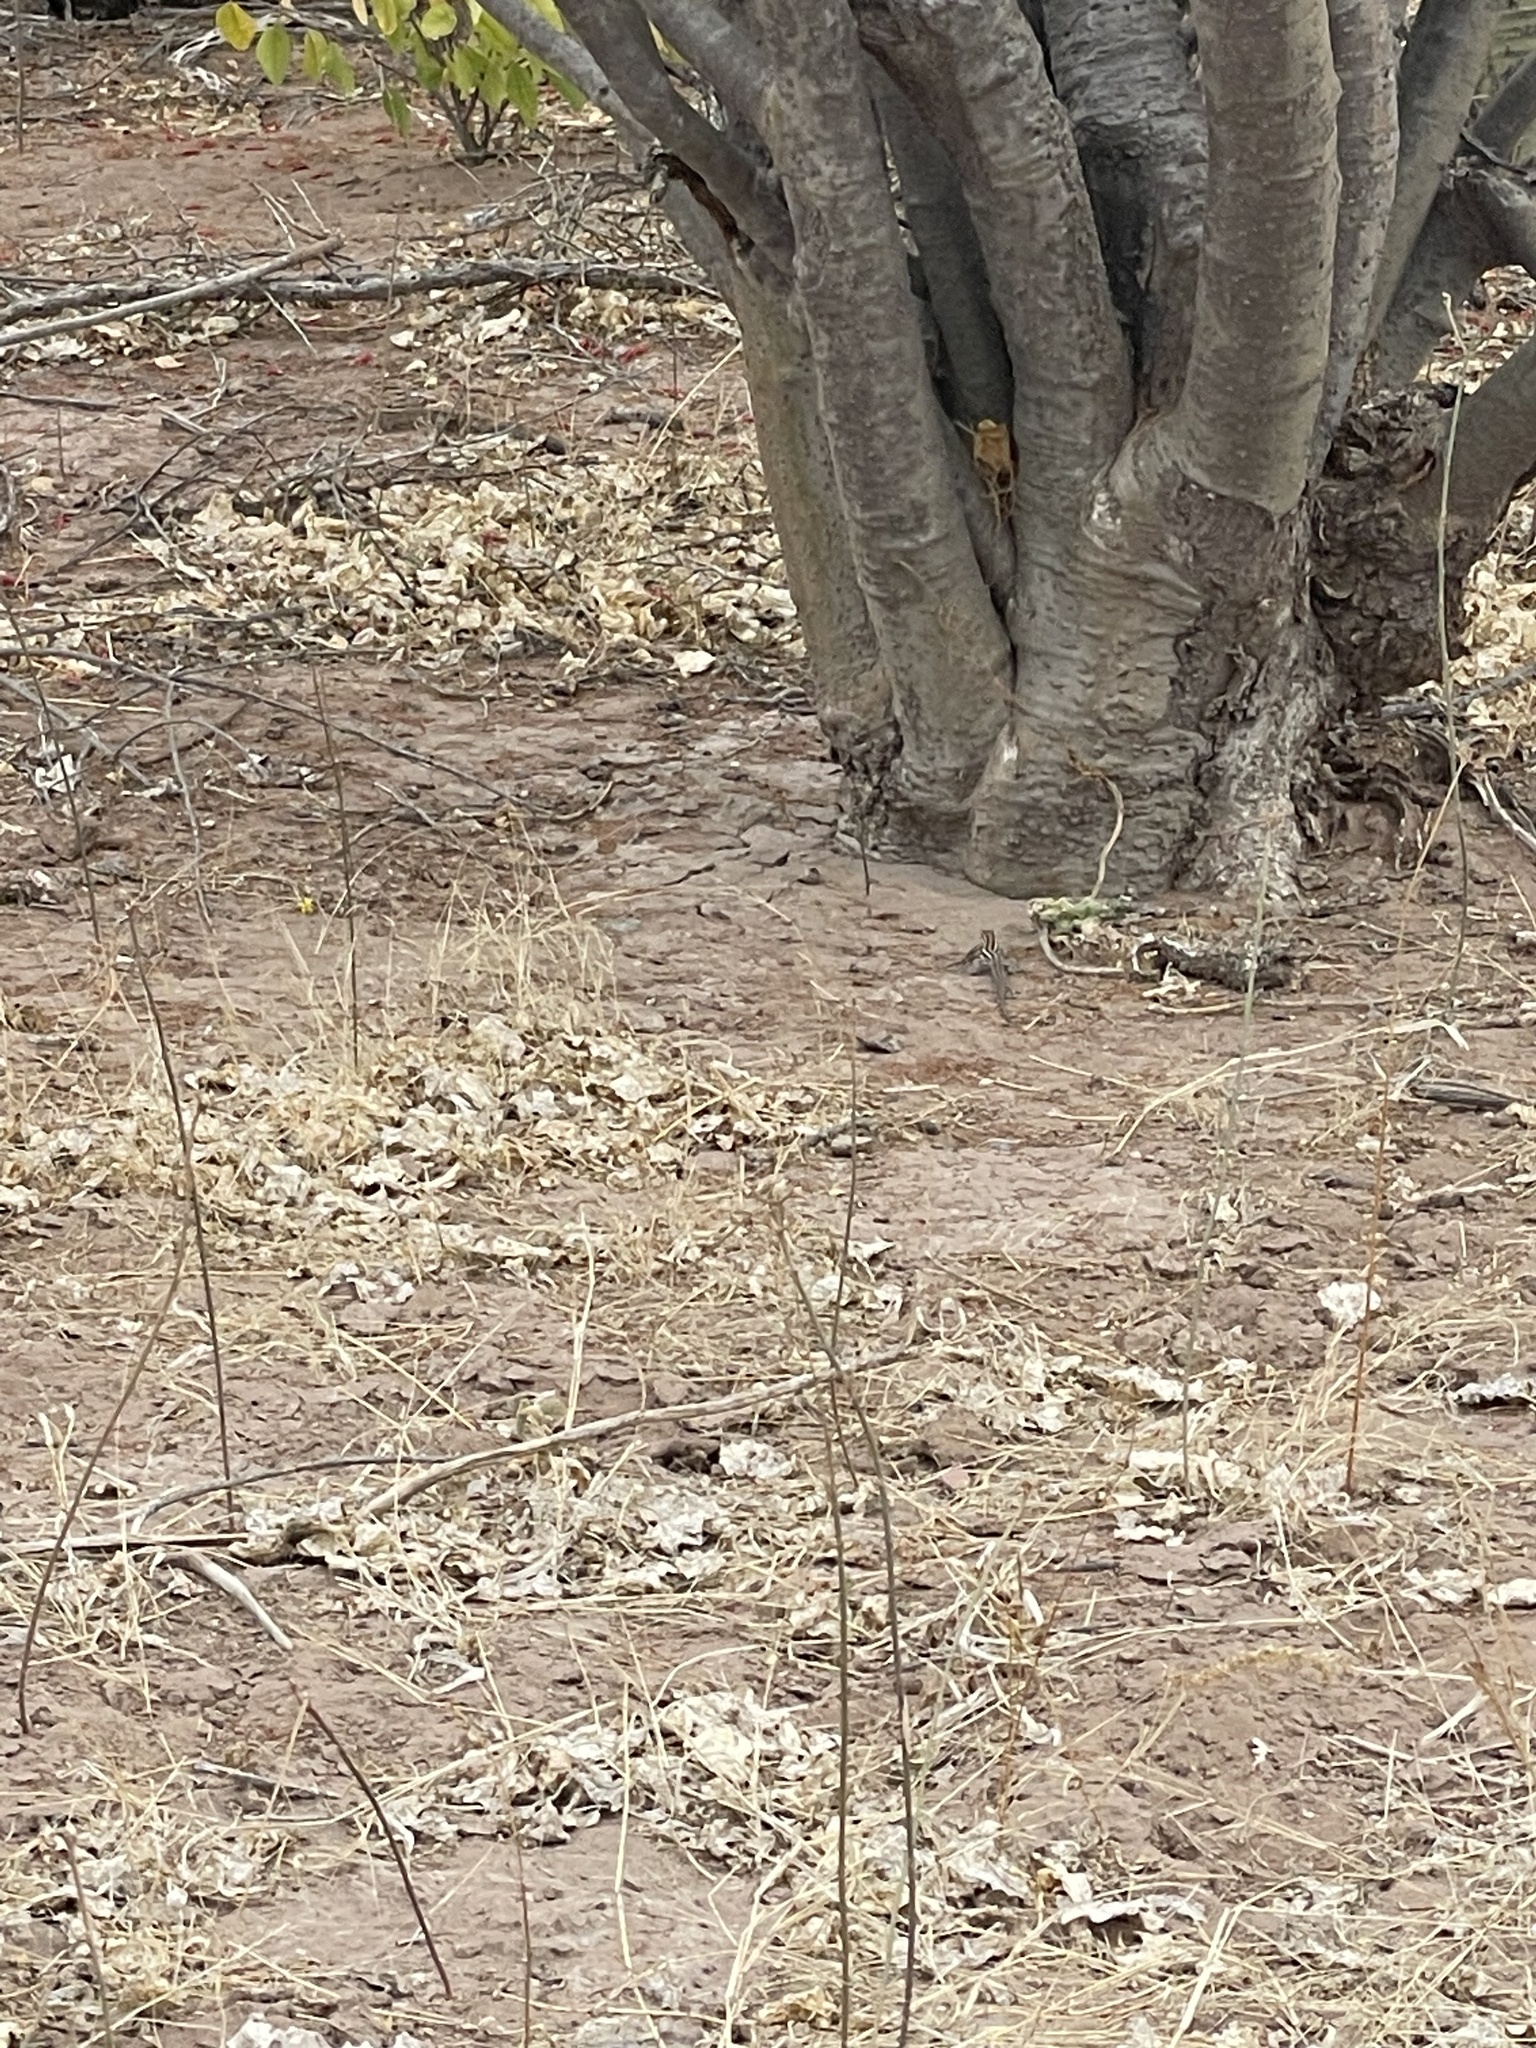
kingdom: Animalia
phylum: Chordata
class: Squamata
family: Teiidae
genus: Aspidoscelis
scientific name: Aspidoscelis hyperythrus
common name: Orange-throated race-runner
